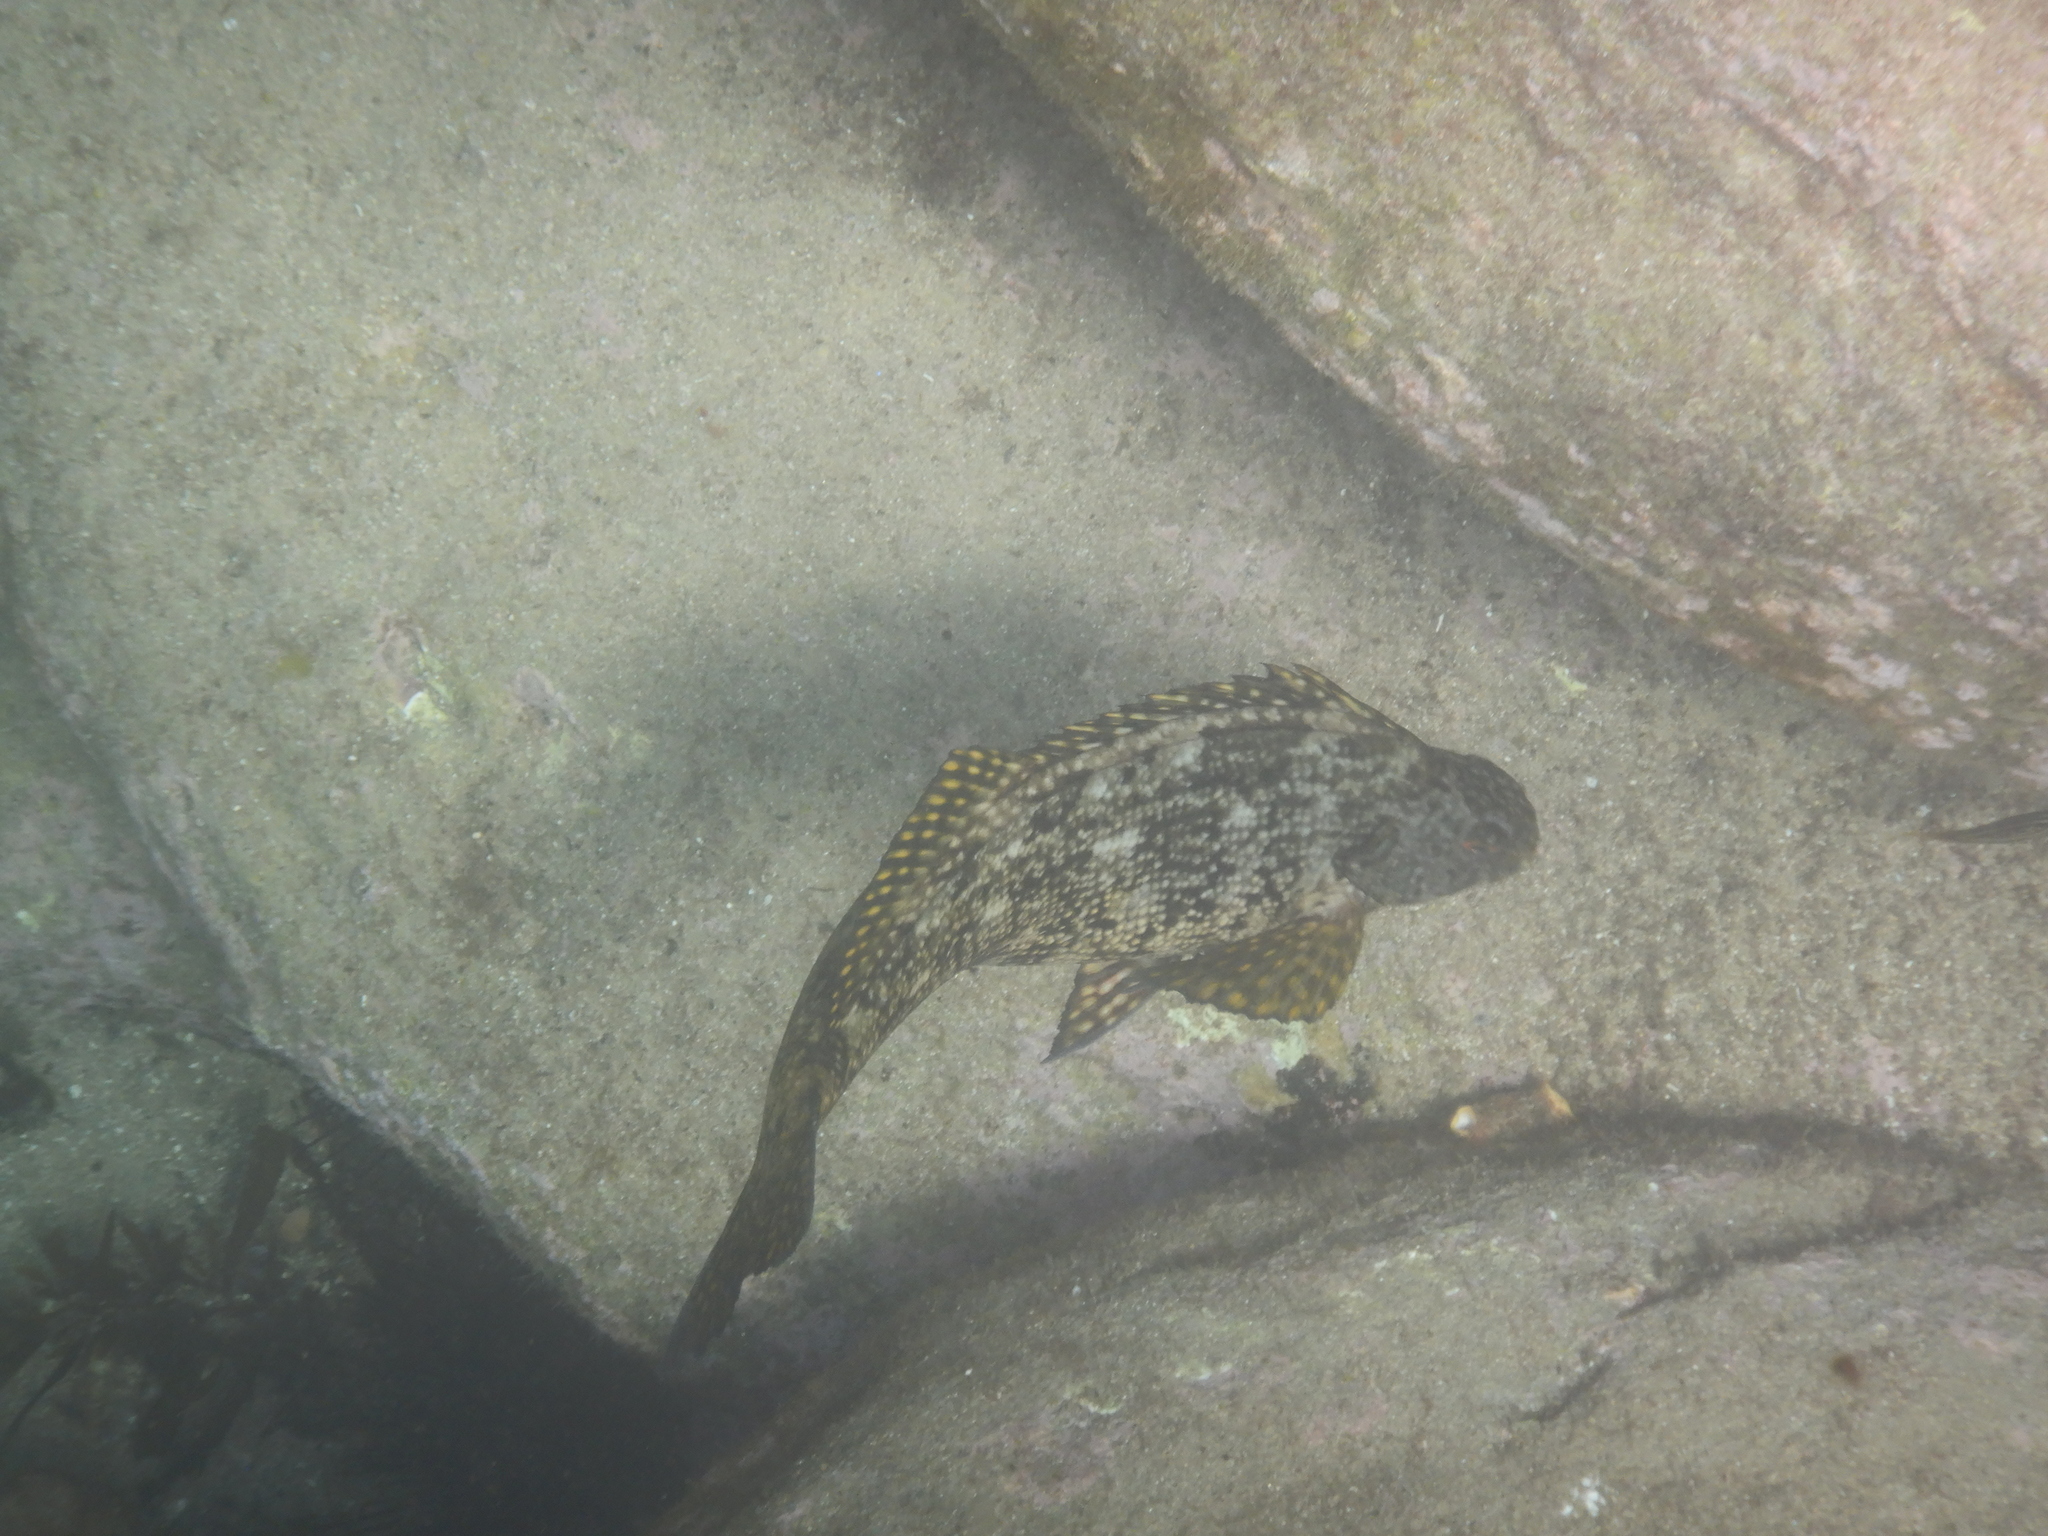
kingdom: Animalia
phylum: Chordata
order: Perciformes
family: Aplodactylidae
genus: Aplodactylus
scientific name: Aplodactylus lophodon
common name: Cockatoo fish
